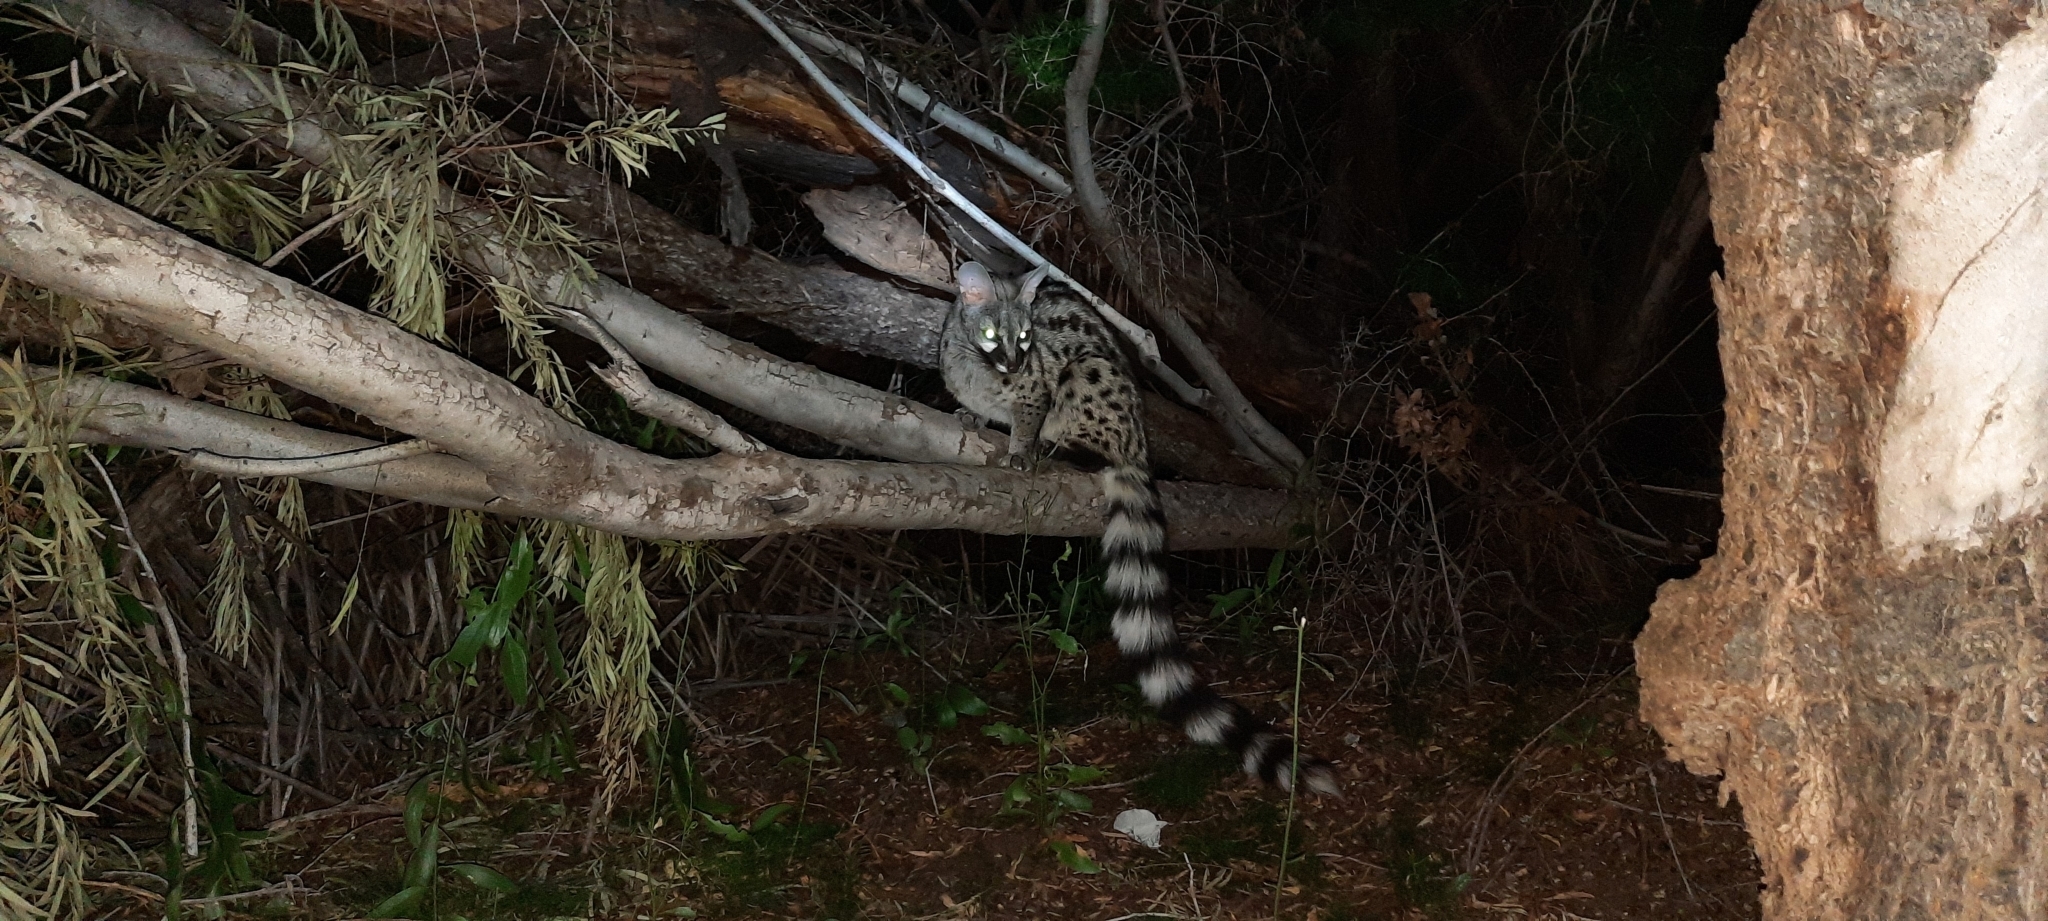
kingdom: Animalia
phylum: Chordata
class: Mammalia
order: Carnivora
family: Viverridae
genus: Genetta
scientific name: Genetta genetta
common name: Common genet
